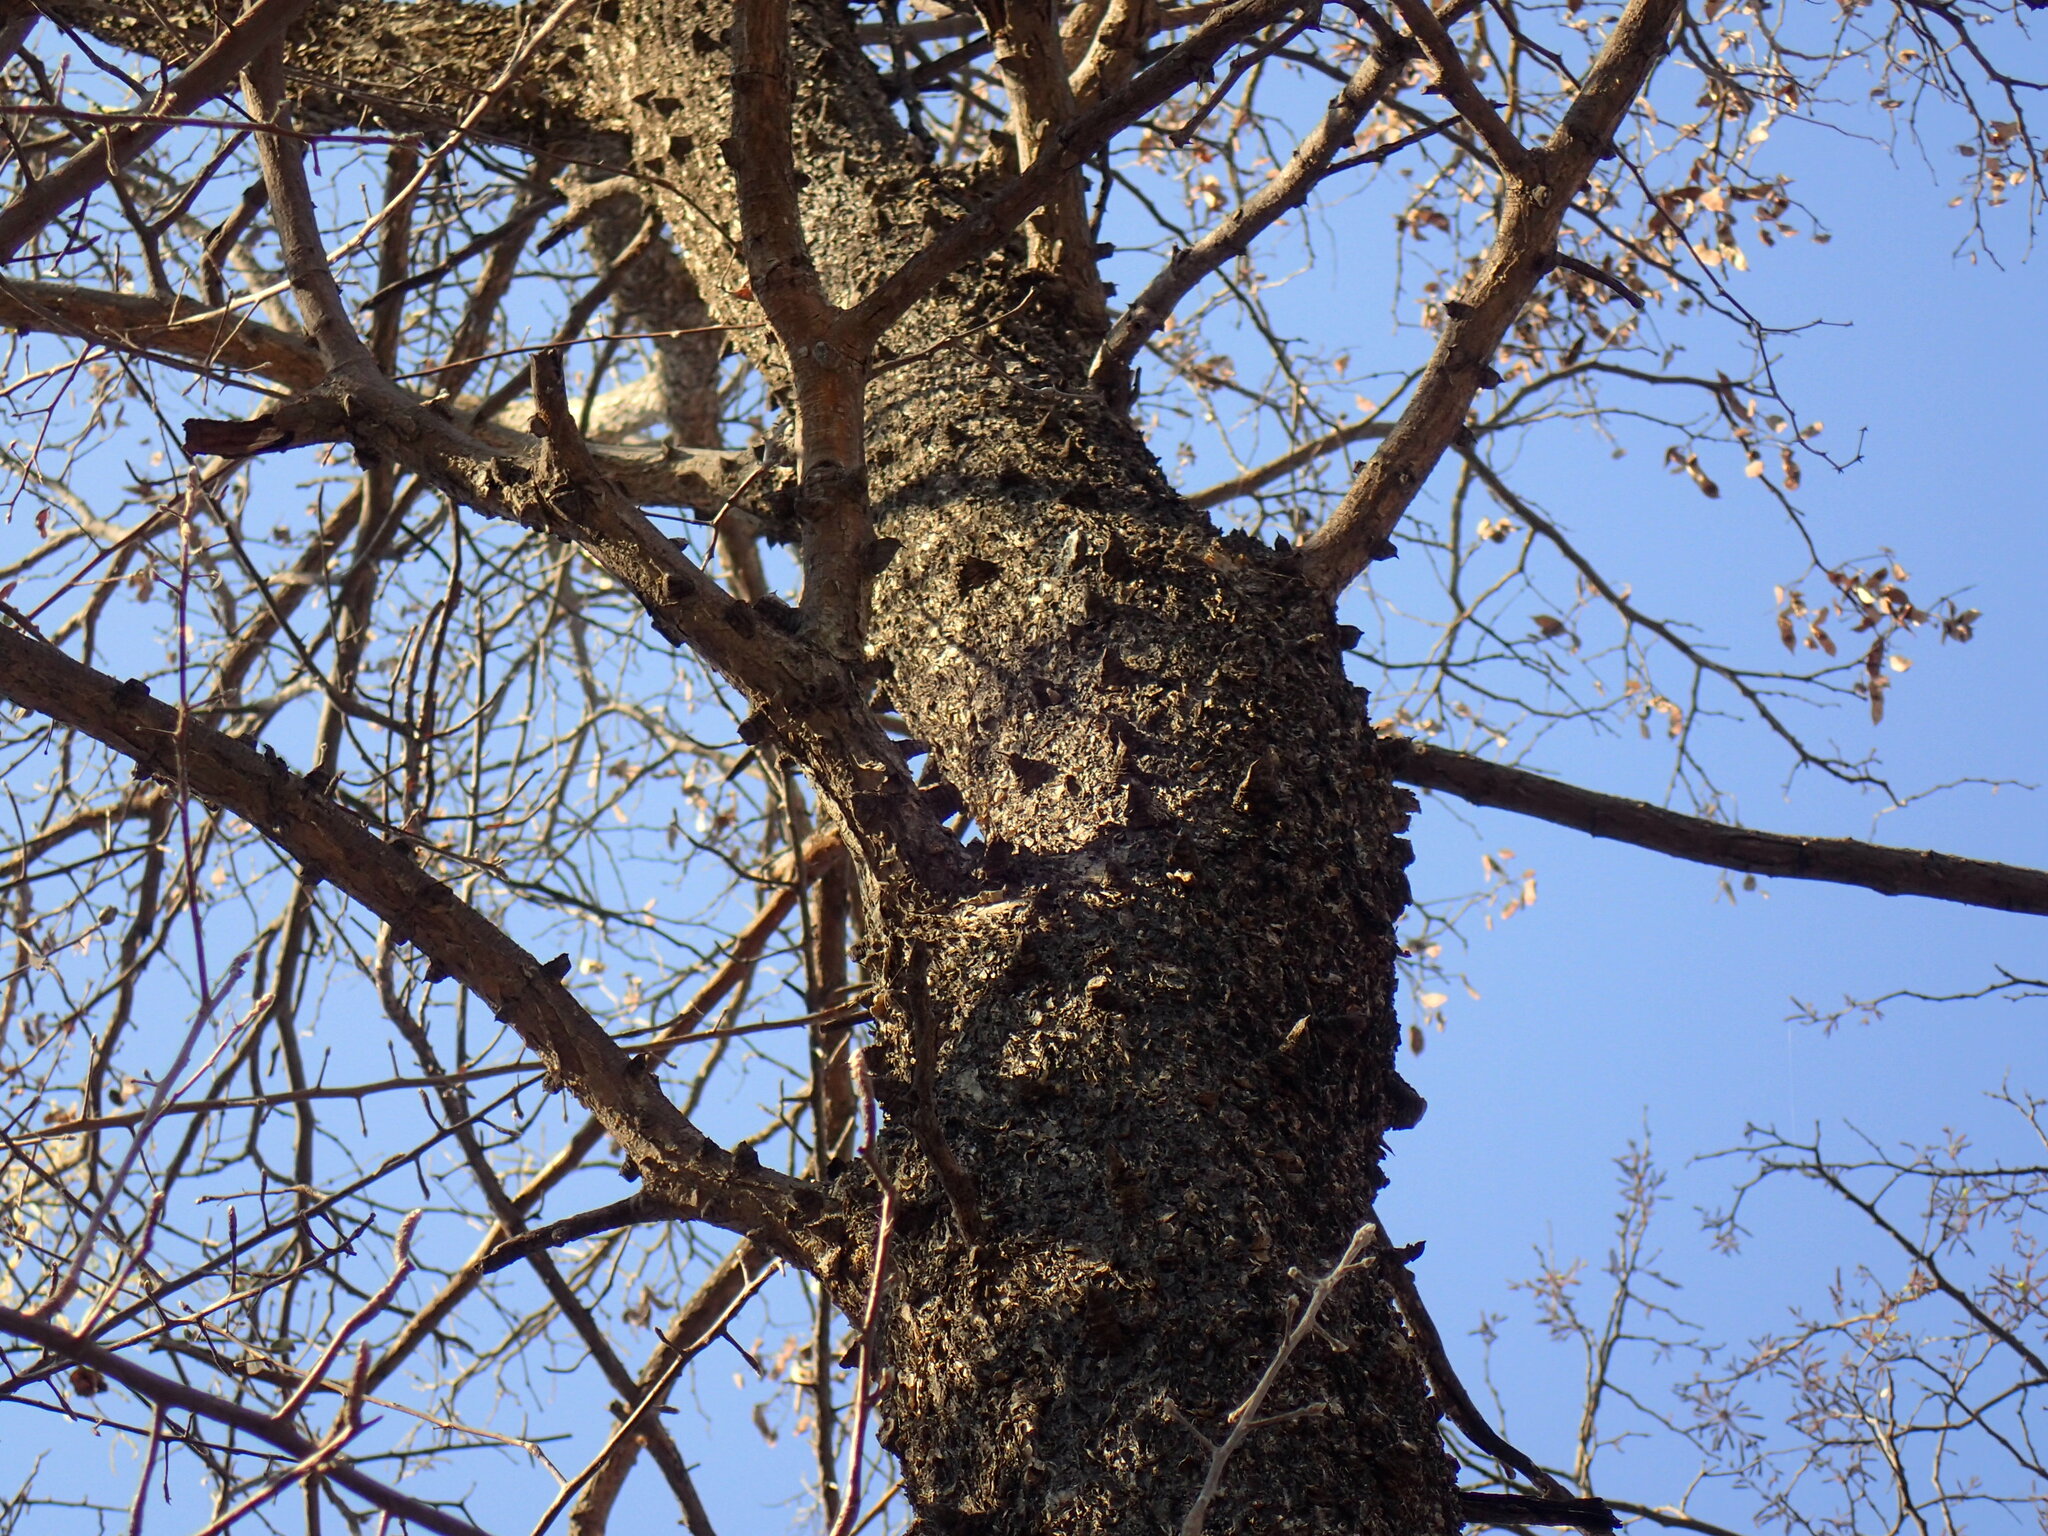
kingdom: Plantae
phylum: Tracheophyta
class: Magnoliopsida
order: Fabales
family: Fabaceae
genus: Senegalia
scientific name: Senegalia nigrescens
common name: Knobthorn
